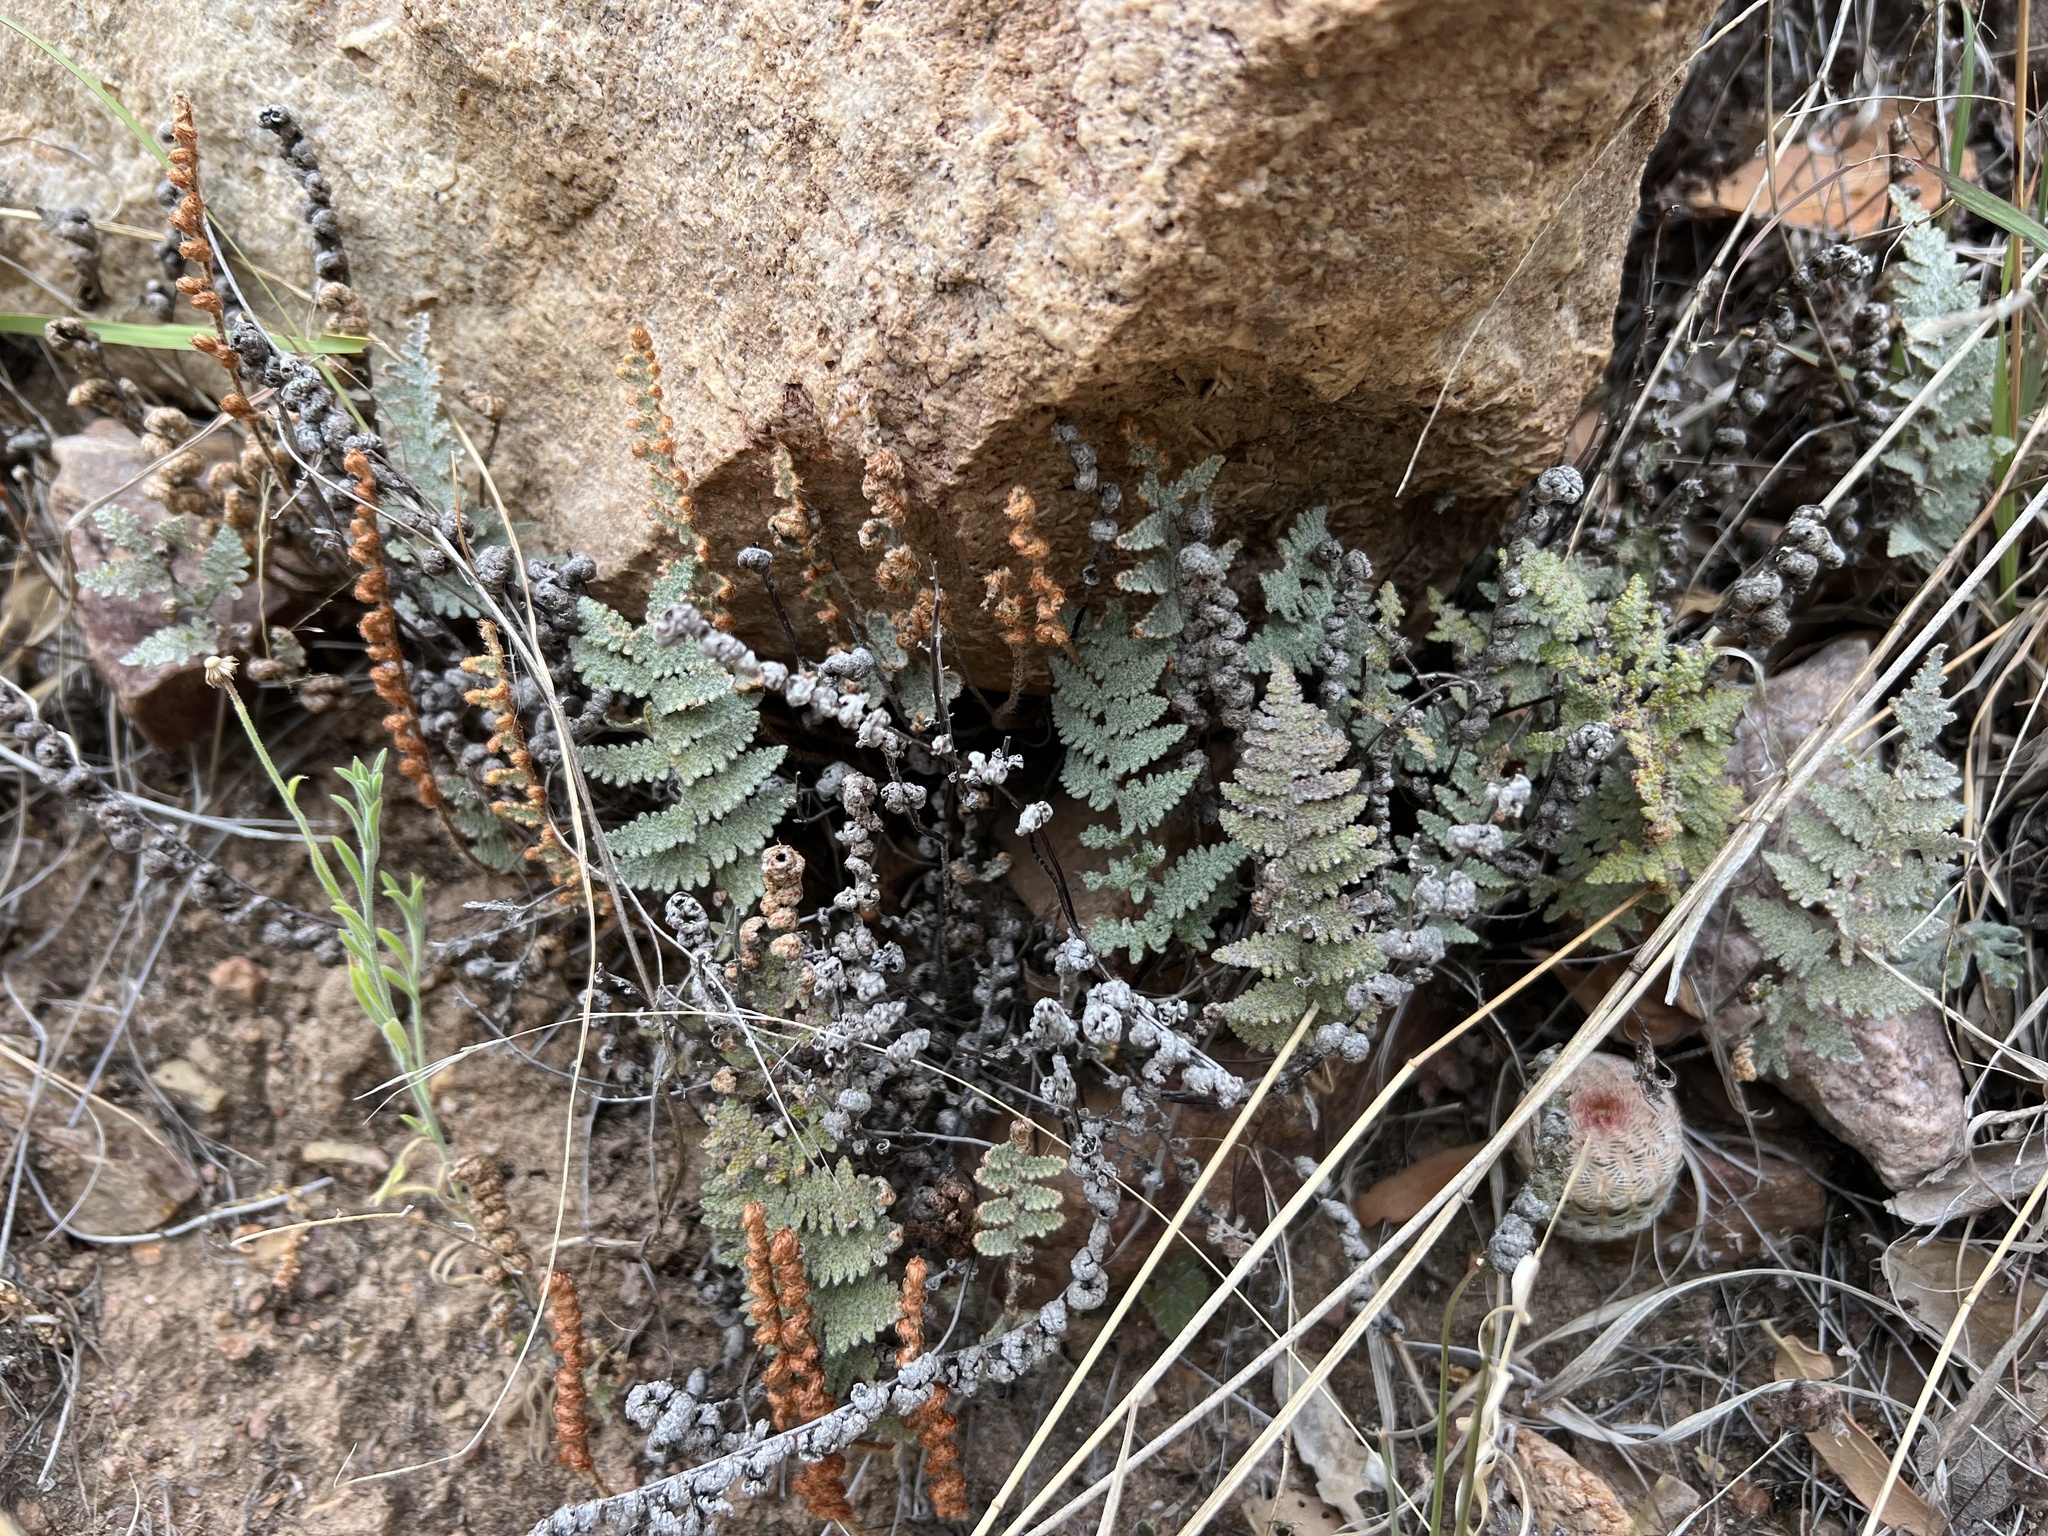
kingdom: Plantae
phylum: Tracheophyta
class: Polypodiopsida
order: Polypodiales
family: Pteridaceae
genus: Myriopteris
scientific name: Myriopteris lindheimeri
